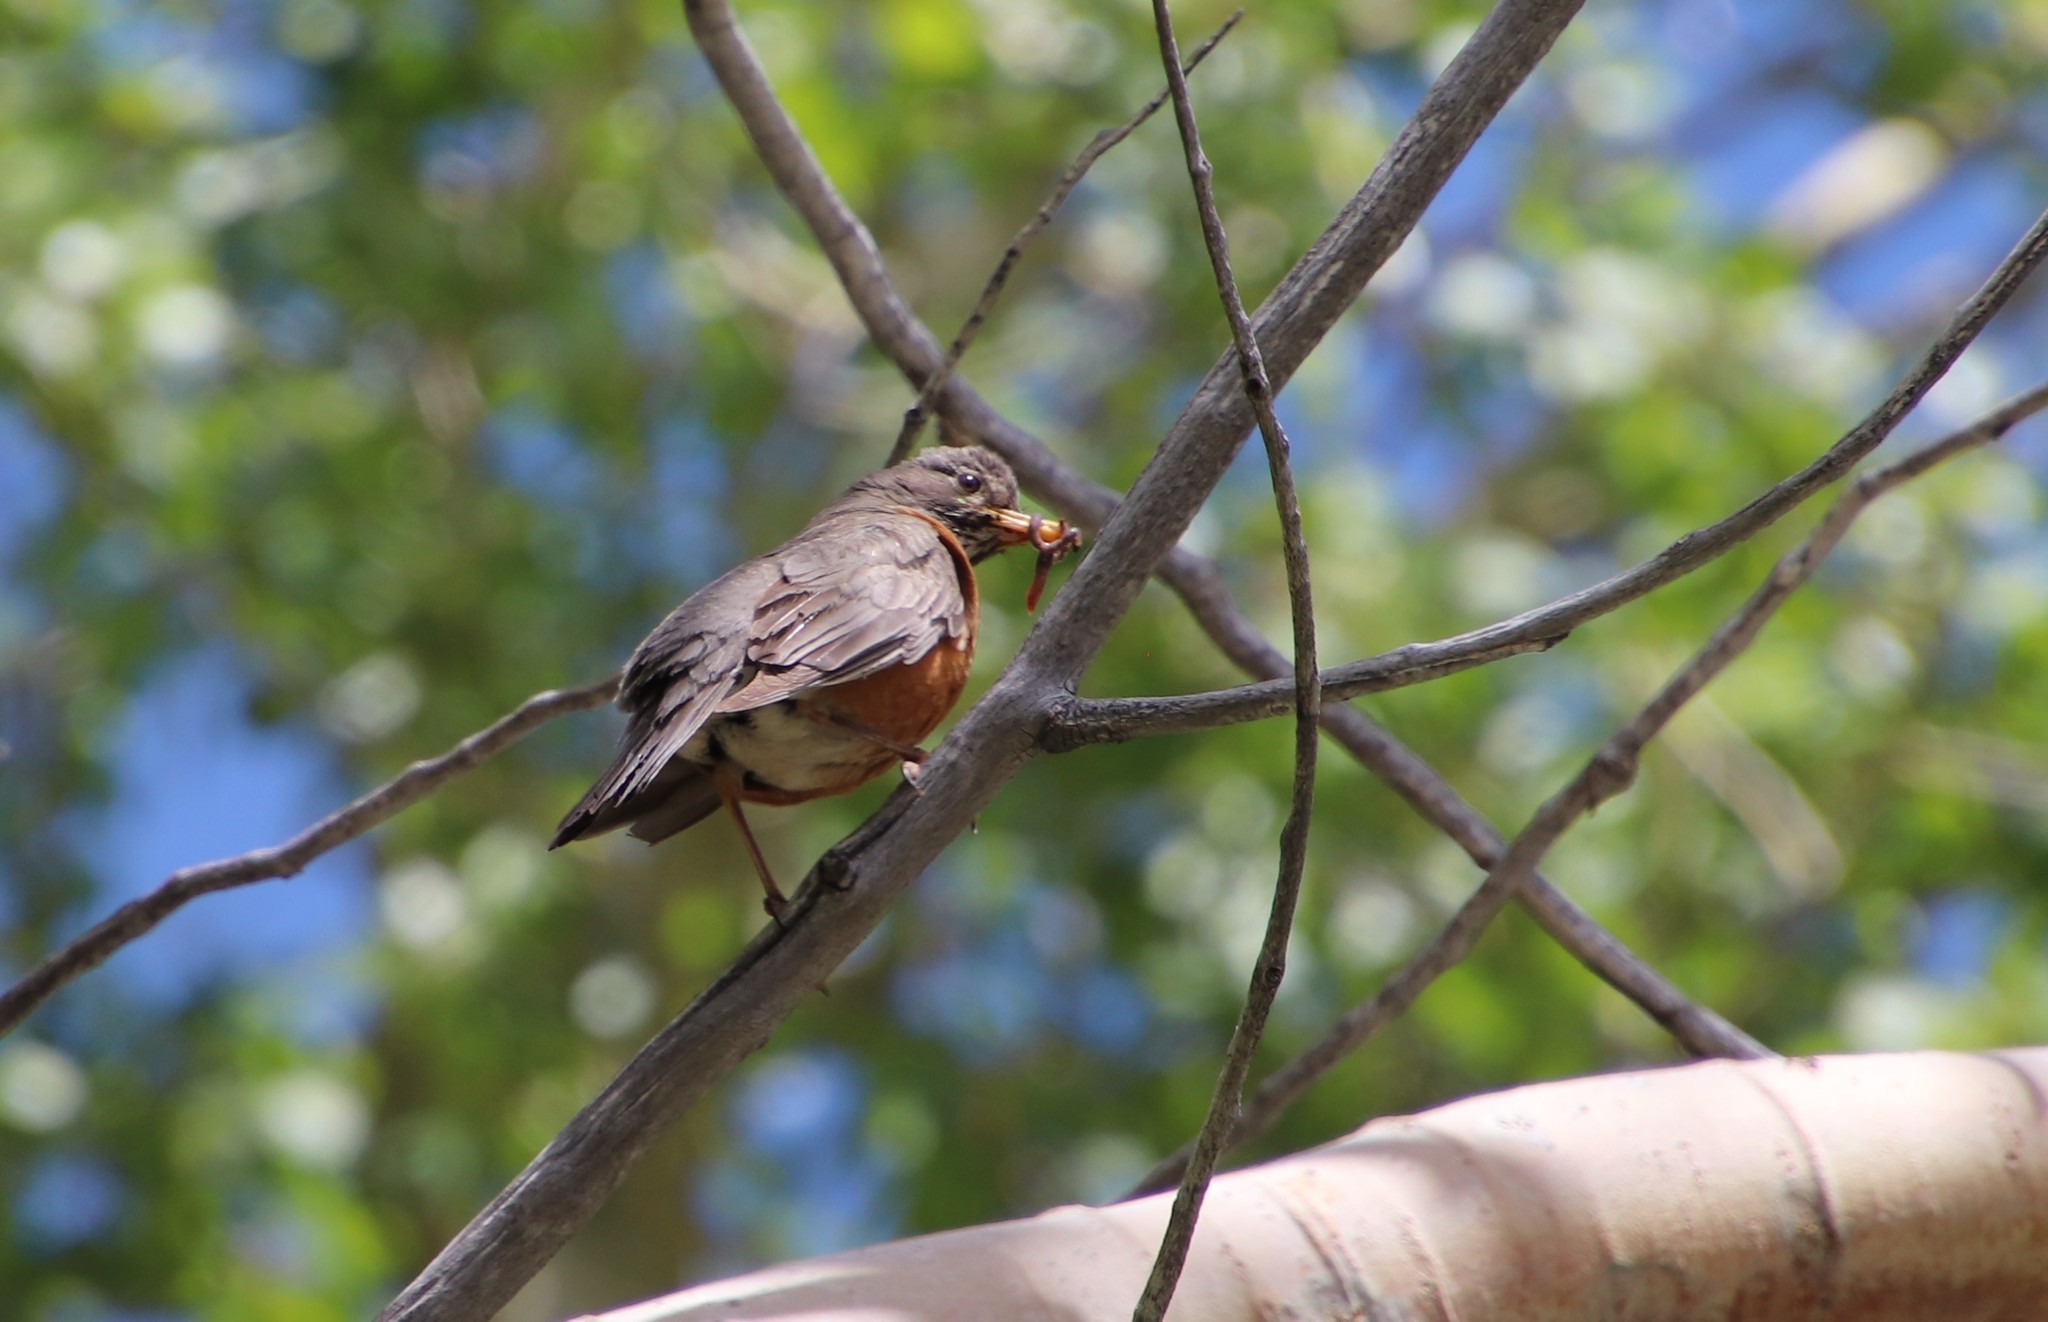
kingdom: Animalia
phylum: Chordata
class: Aves
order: Passeriformes
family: Turdidae
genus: Turdus
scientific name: Turdus migratorius
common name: American robin
